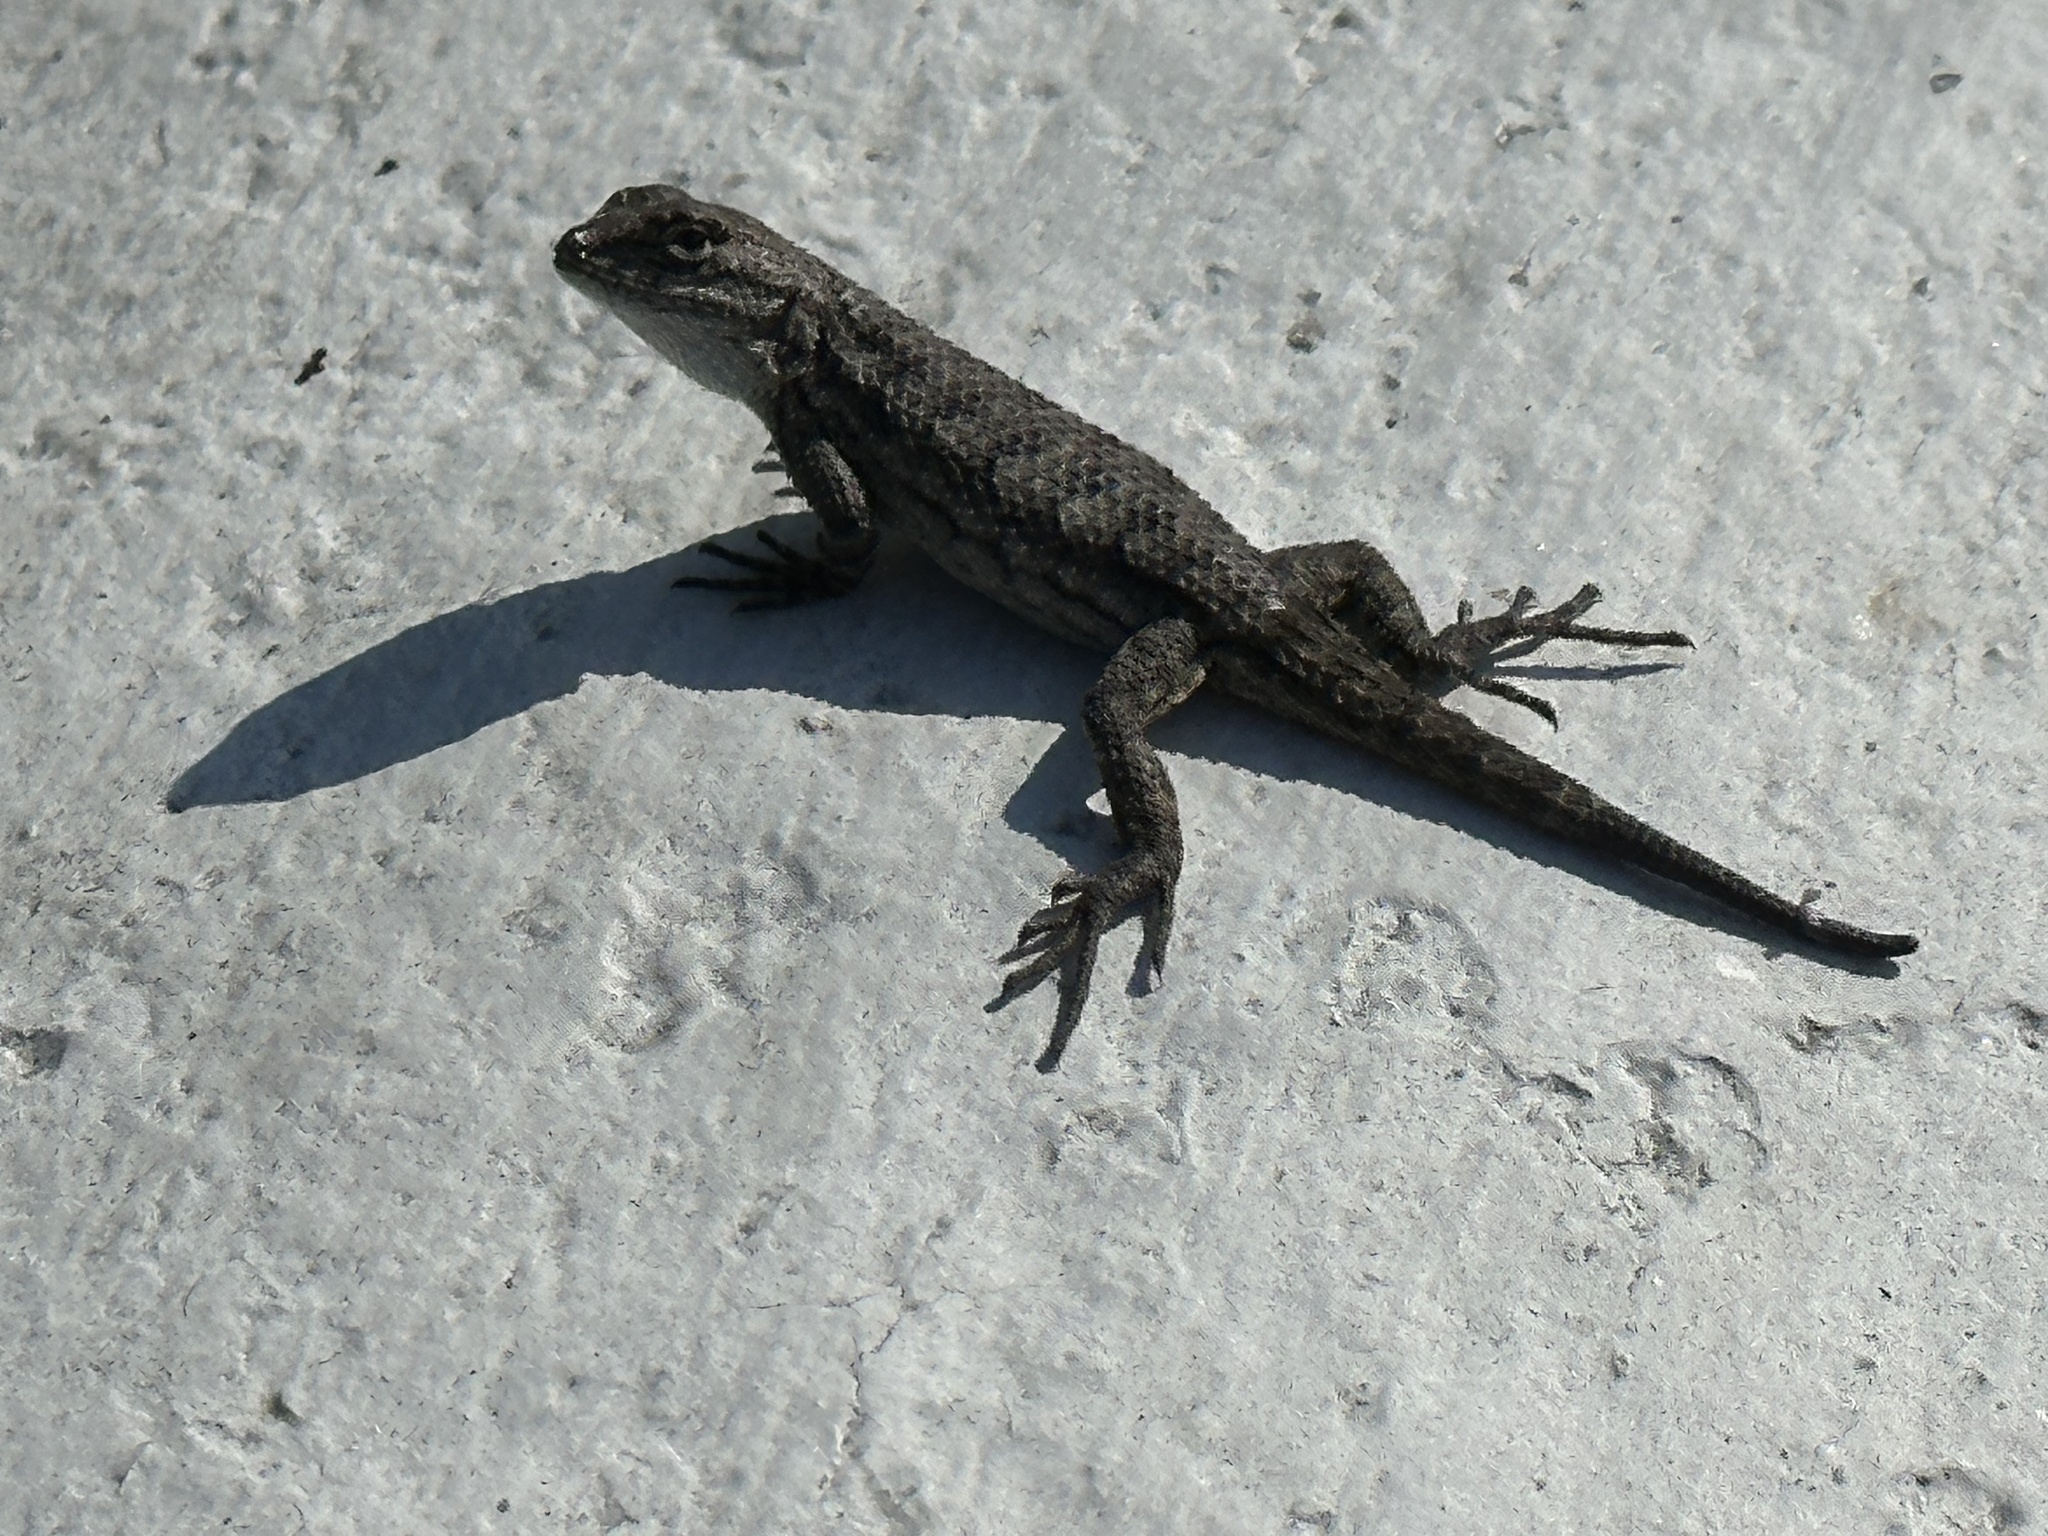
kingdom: Animalia
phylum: Chordata
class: Squamata
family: Phrynosomatidae
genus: Sceloporus
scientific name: Sceloporus occidentalis
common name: Western fence lizard
